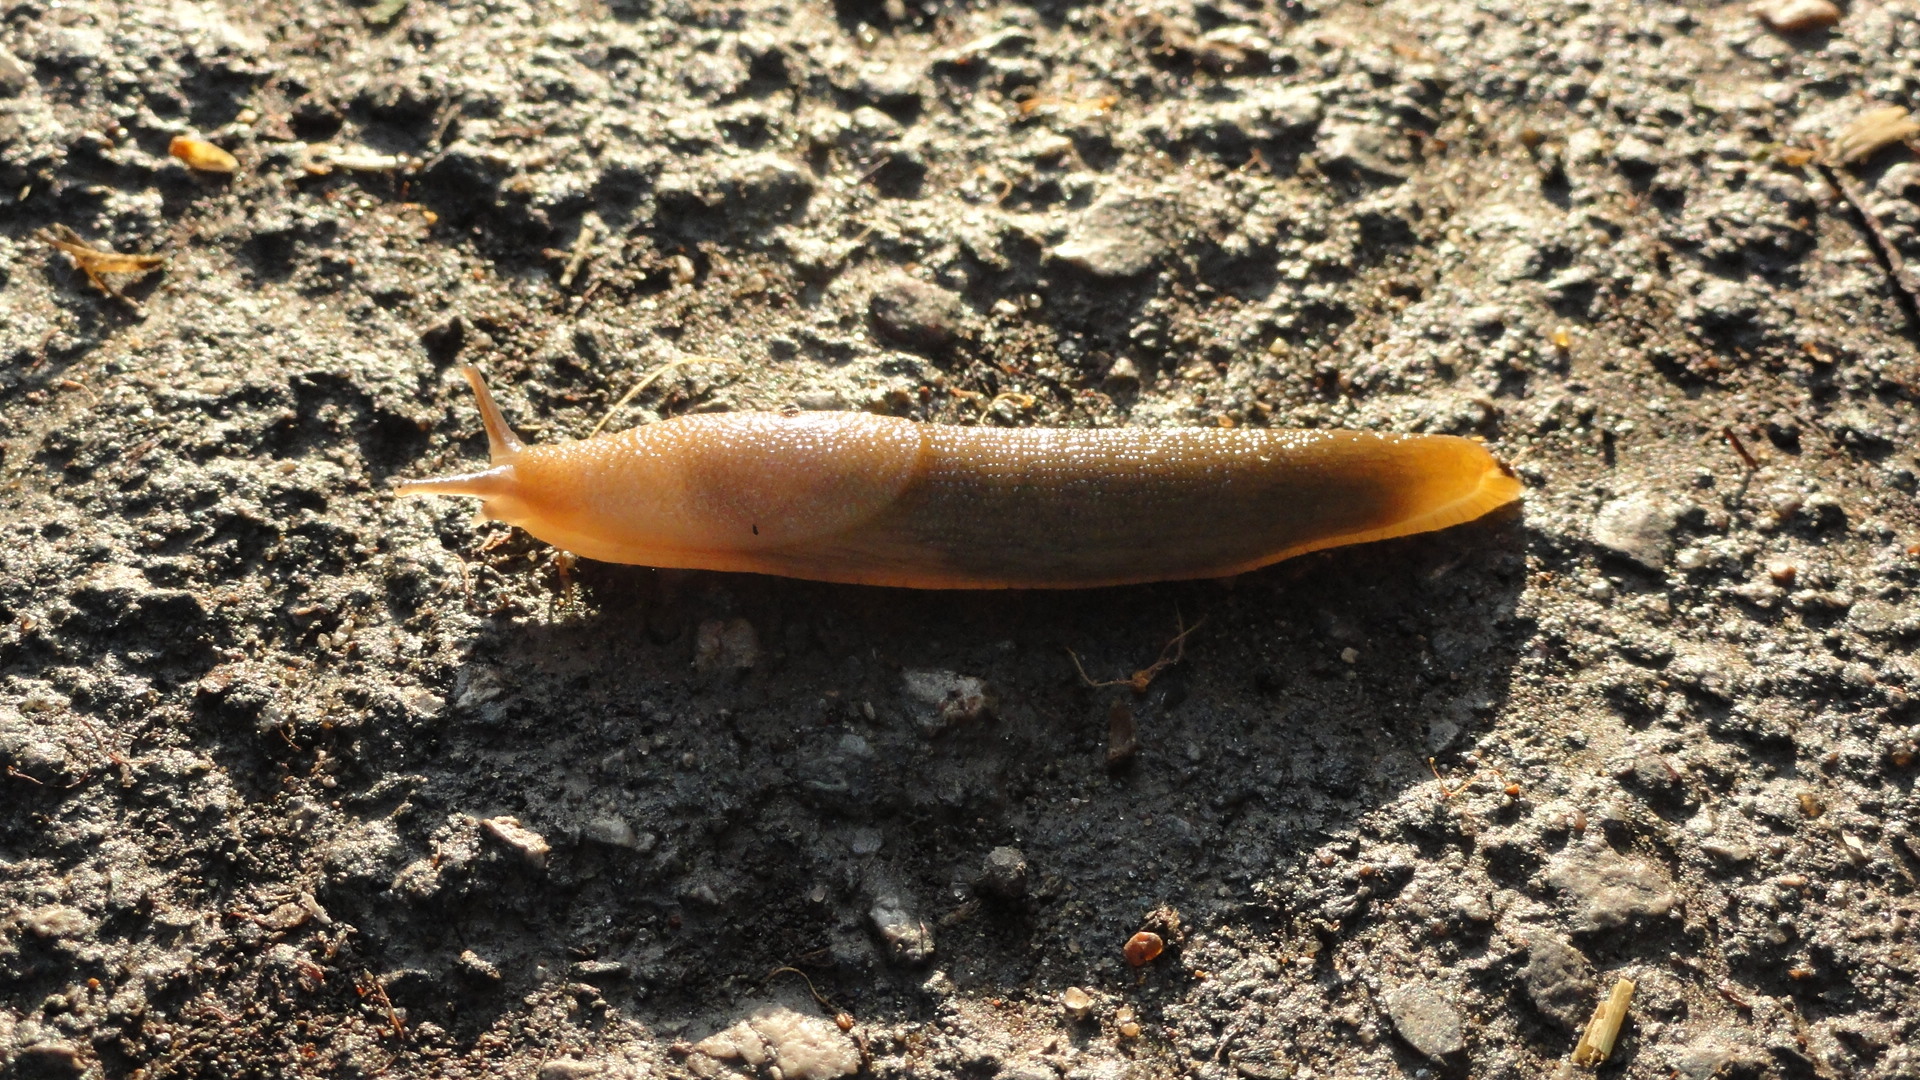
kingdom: Animalia
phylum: Mollusca
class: Gastropoda
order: Stylommatophora
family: Arionidae
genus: Arion
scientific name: Arion fuscus
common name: Northern dusky slug
